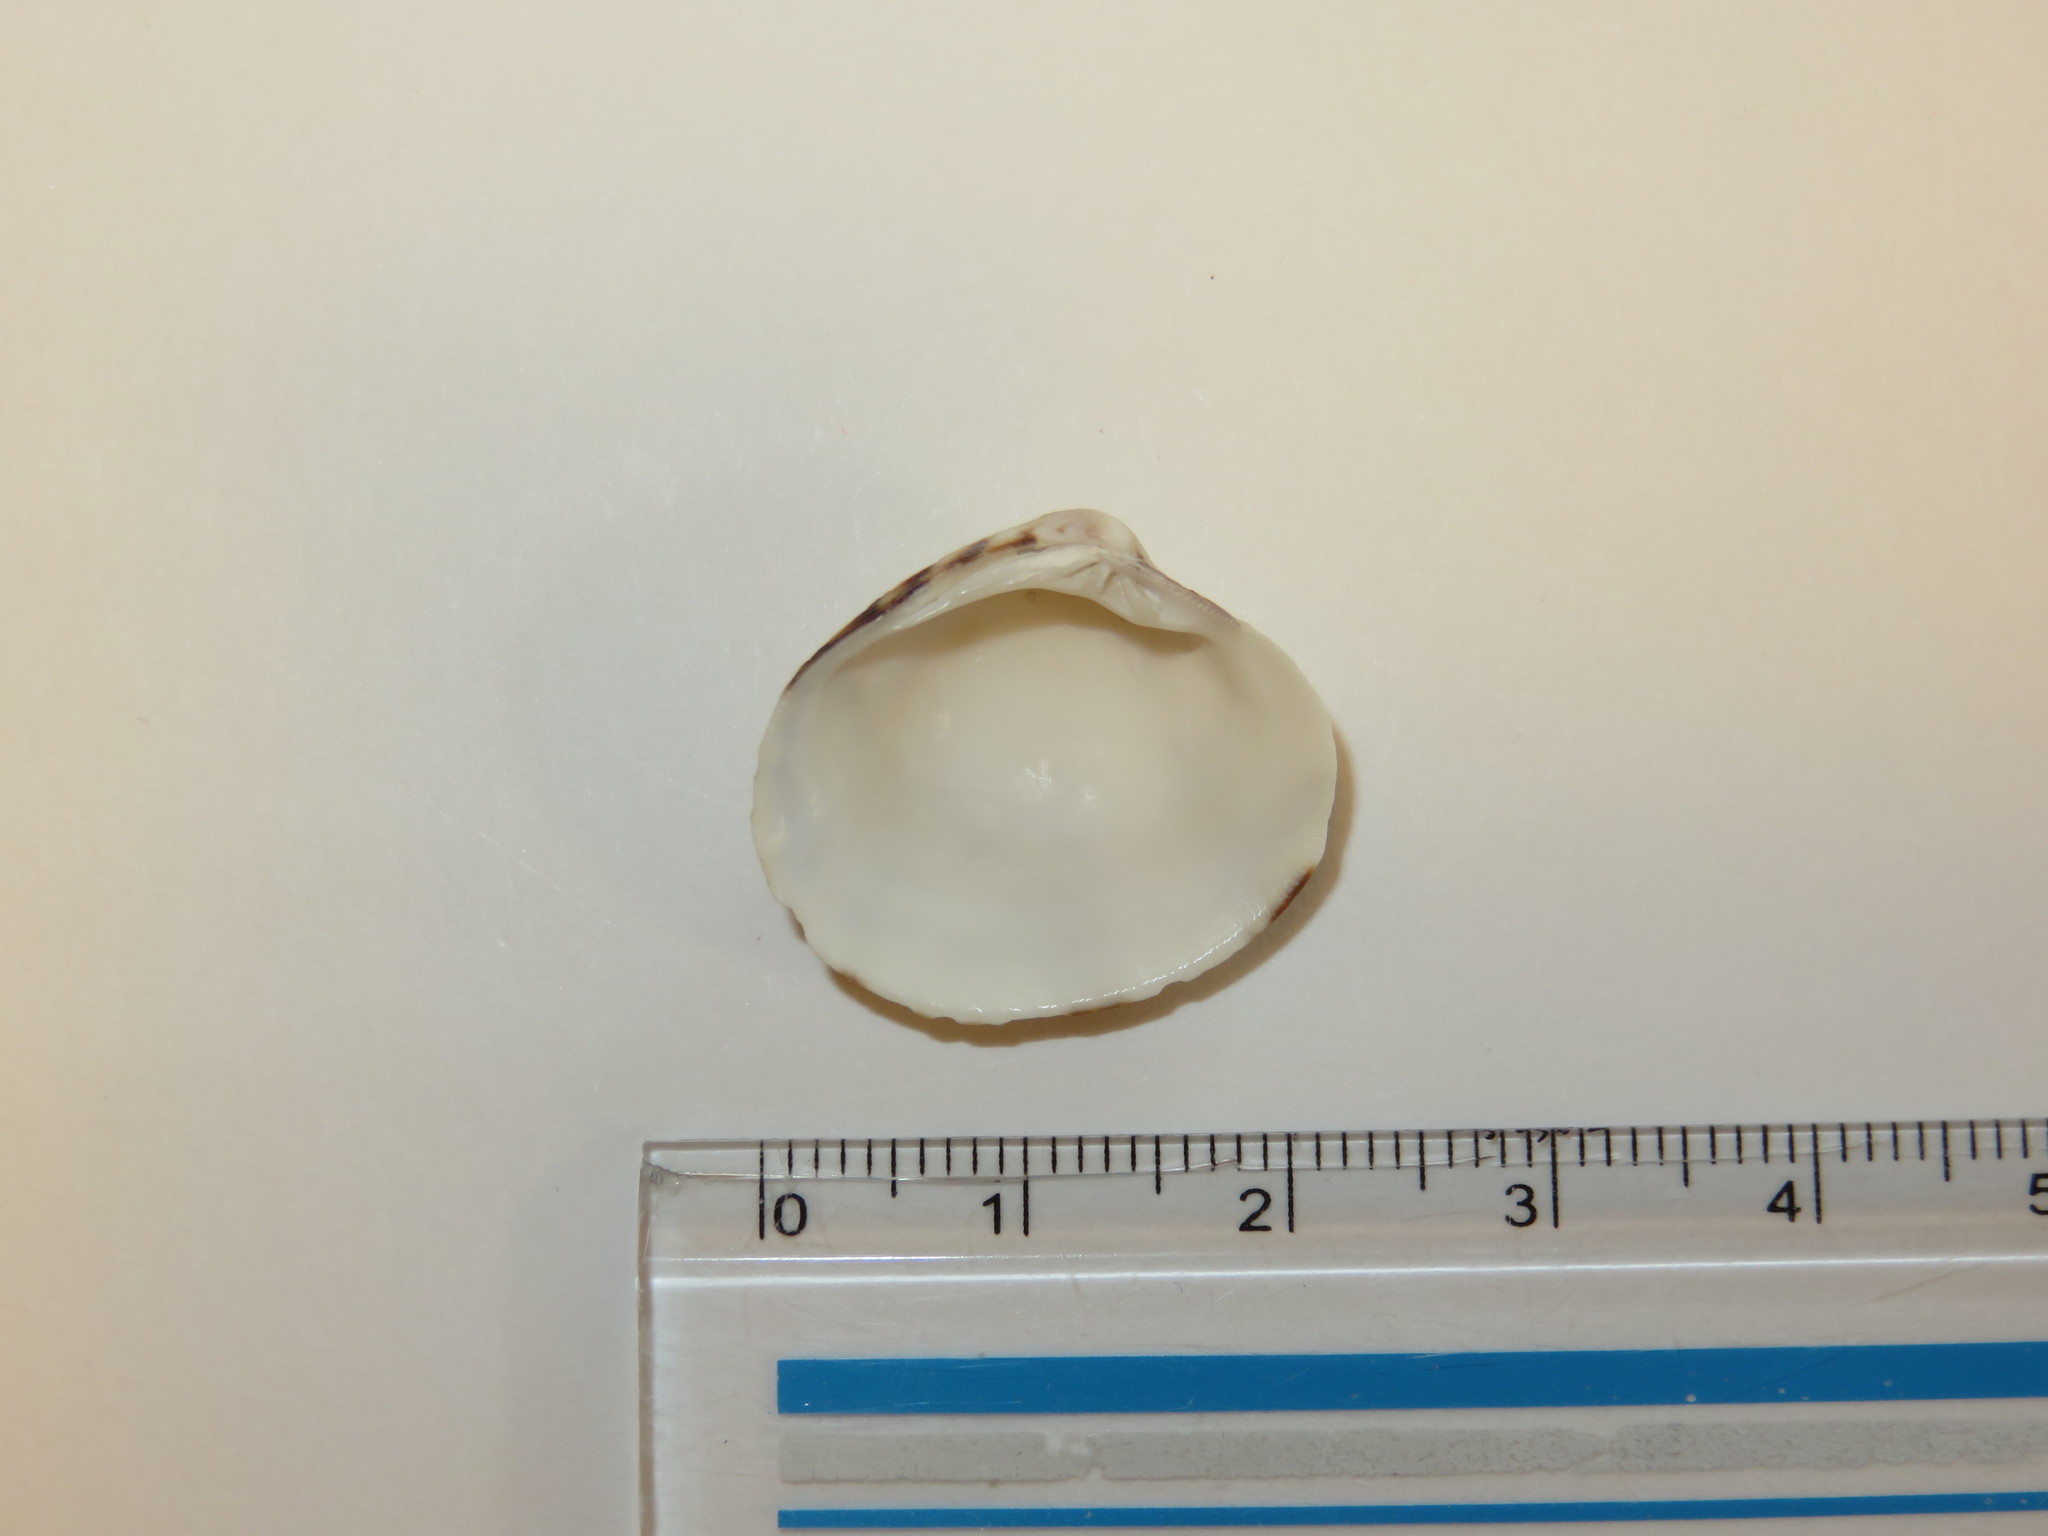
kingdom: Animalia
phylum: Mollusca
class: Bivalvia
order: Venerida
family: Veneridae
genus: Leukoma
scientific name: Leukoma jedoensis
